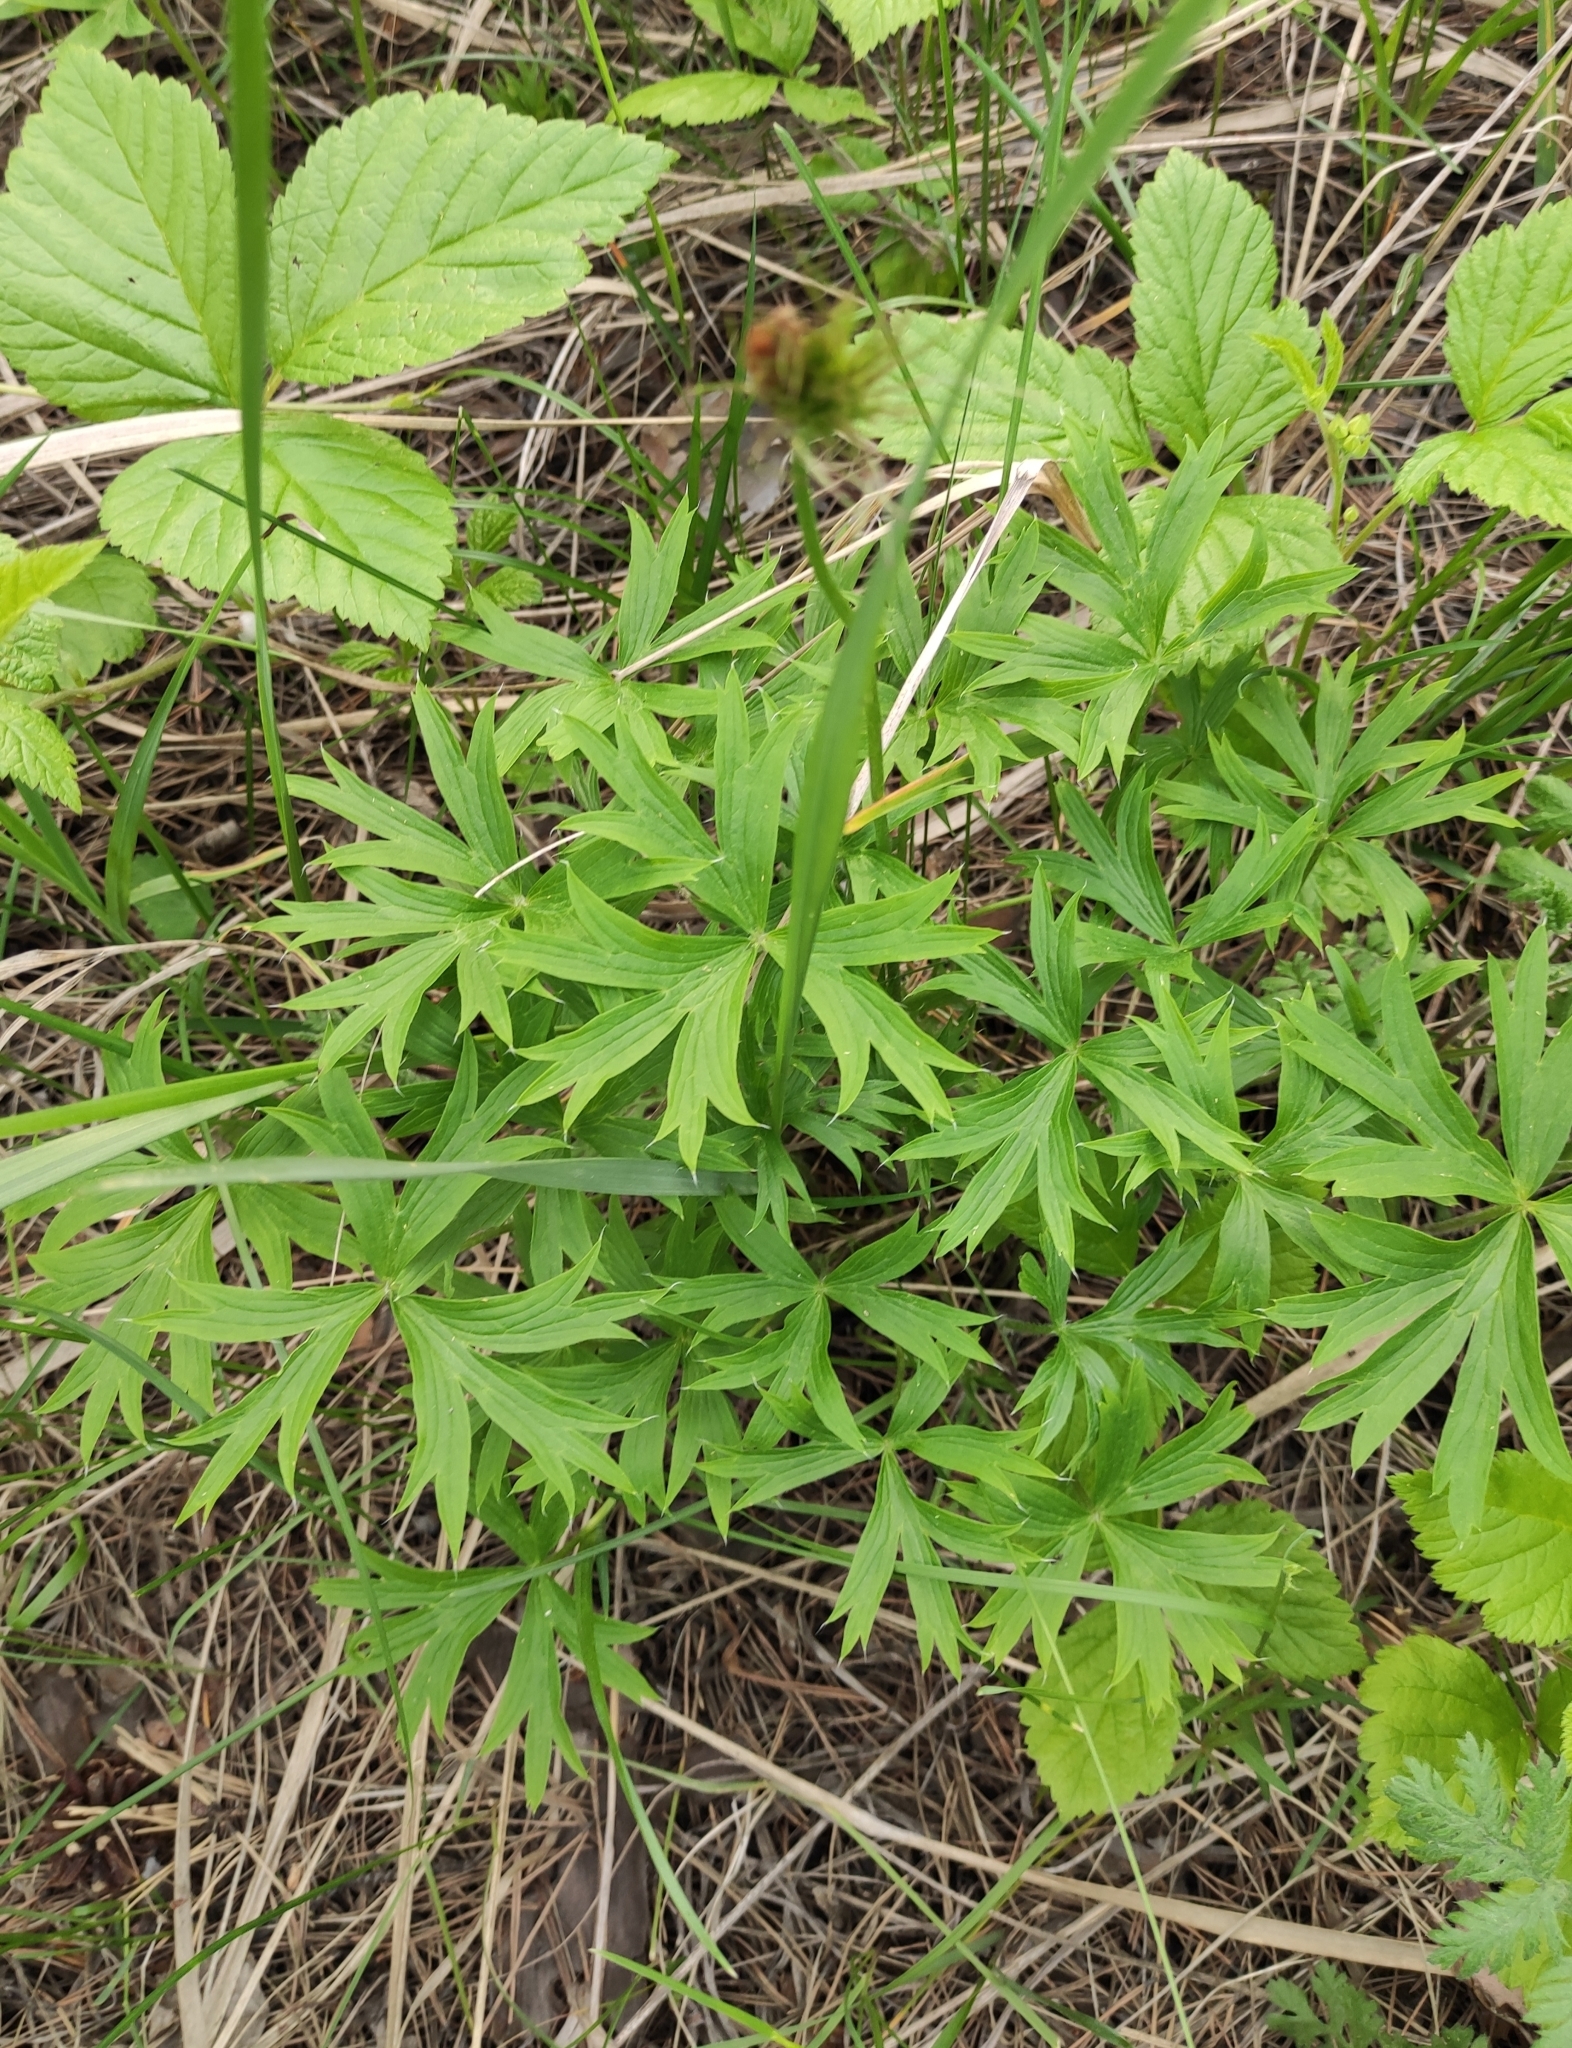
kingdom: Plantae
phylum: Tracheophyta
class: Magnoliopsida
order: Ranunculales
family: Ranunculaceae
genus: Pulsatilla
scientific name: Pulsatilla patens
